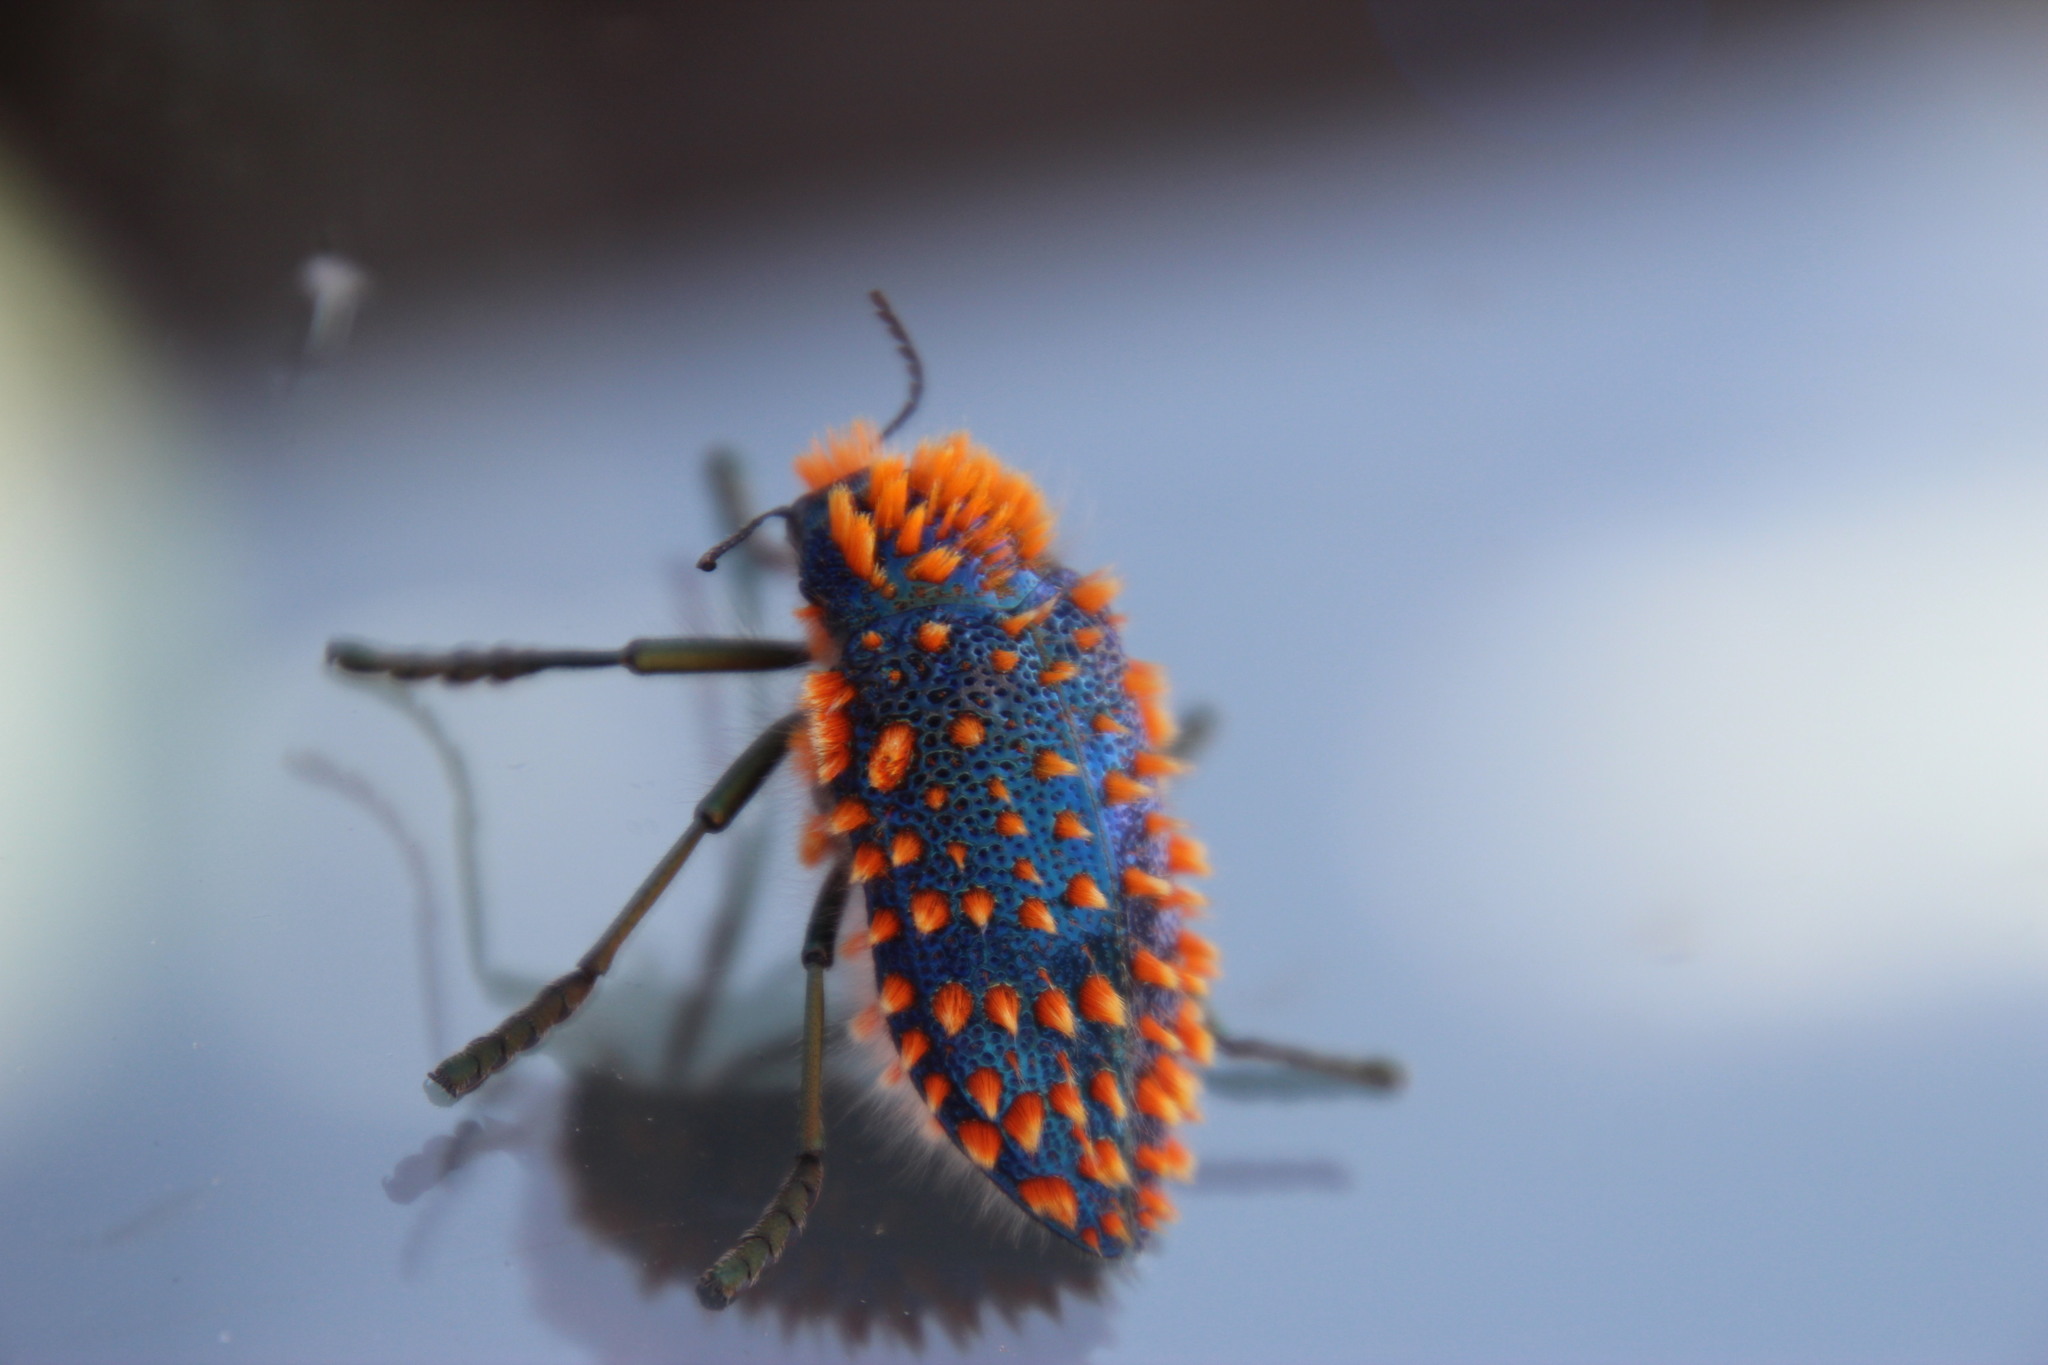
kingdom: Animalia
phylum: Arthropoda
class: Insecta
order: Coleoptera
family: Buprestidae
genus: Julodis
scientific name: Julodis viridipes
